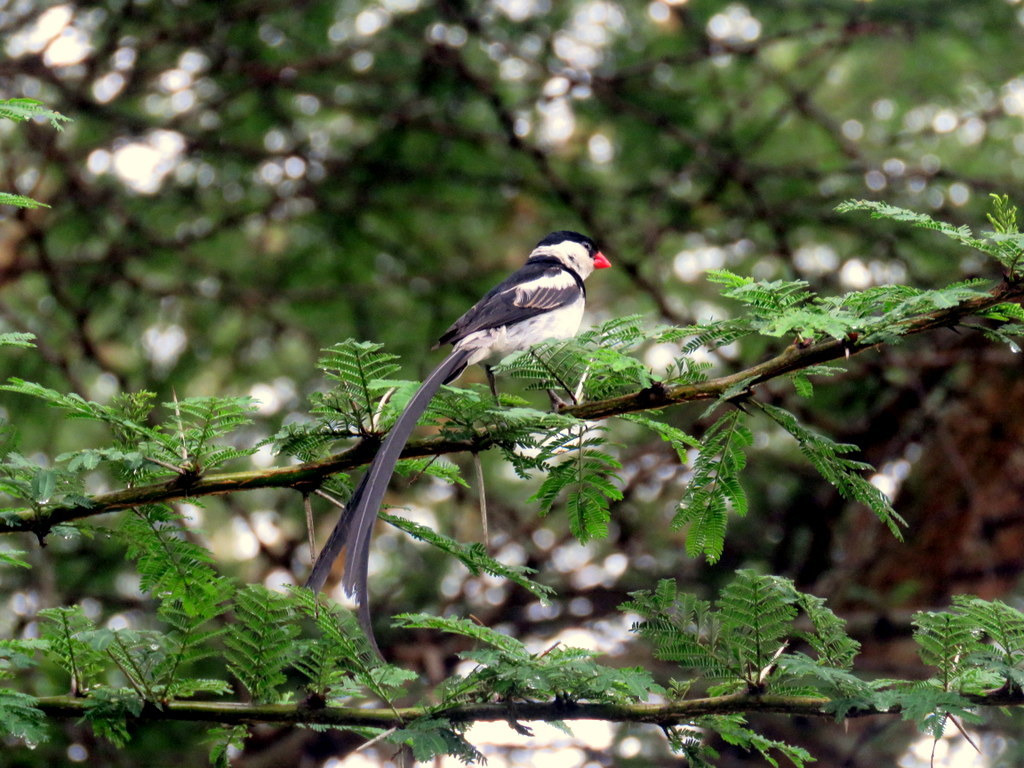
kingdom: Animalia
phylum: Chordata
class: Aves
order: Passeriformes
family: Viduidae
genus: Vidua
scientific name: Vidua macroura
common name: Pin-tailed whydah
